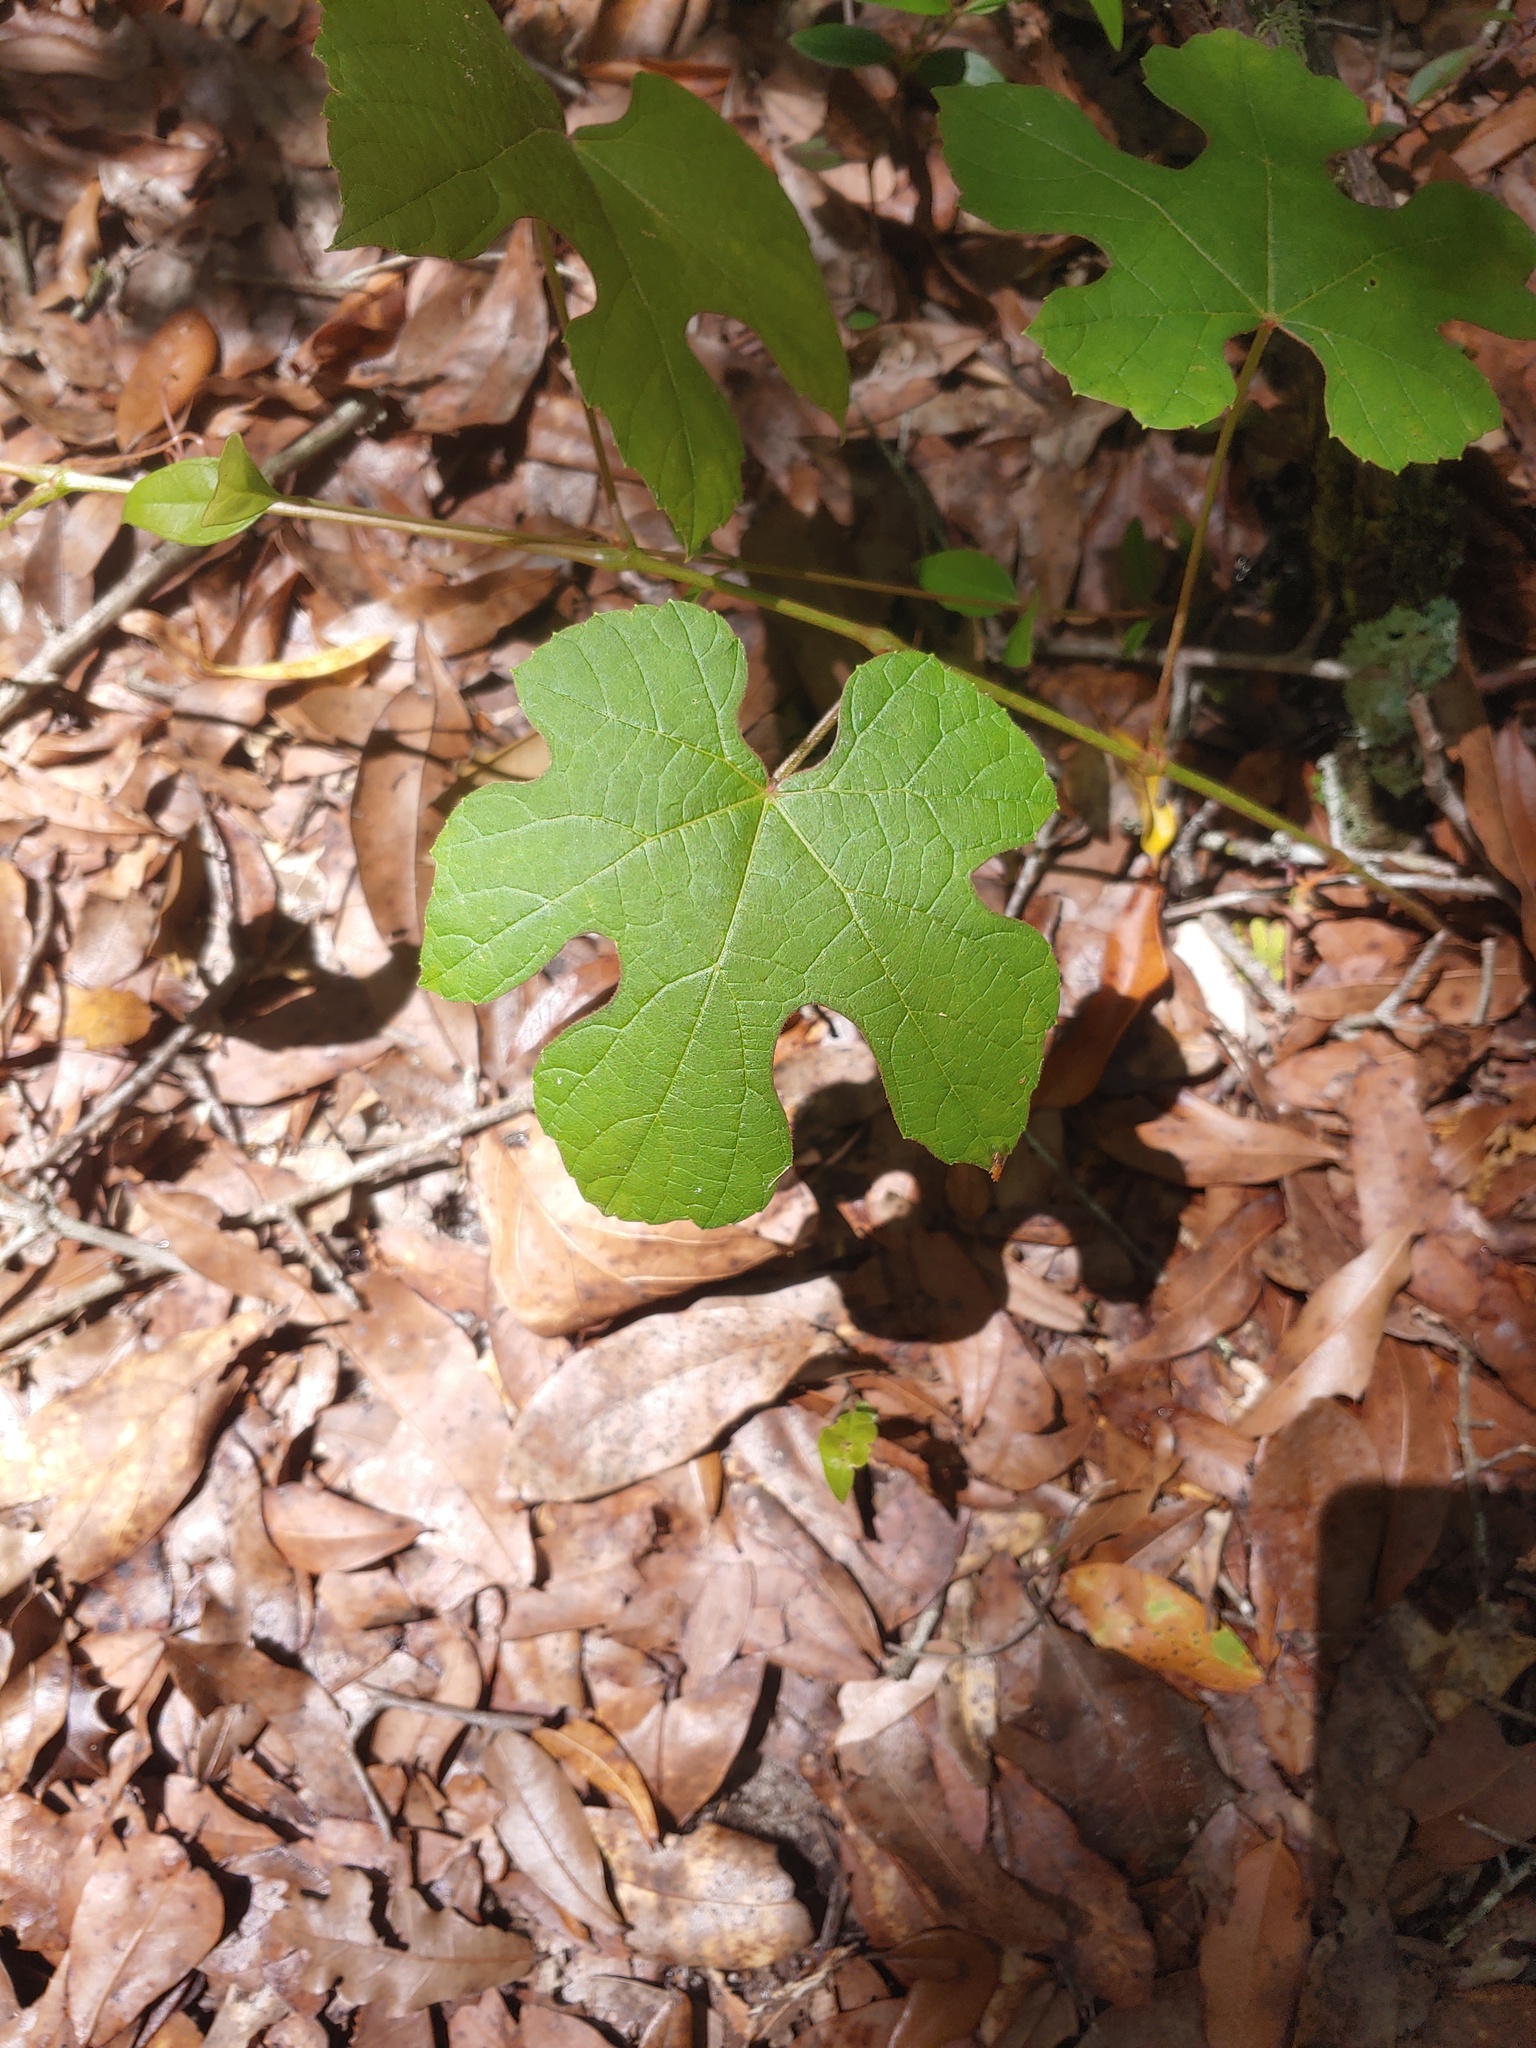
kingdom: Plantae
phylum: Tracheophyta
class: Magnoliopsida
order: Vitales
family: Vitaceae
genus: Vitis
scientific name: Vitis aestivalis
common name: Pigeon grape
